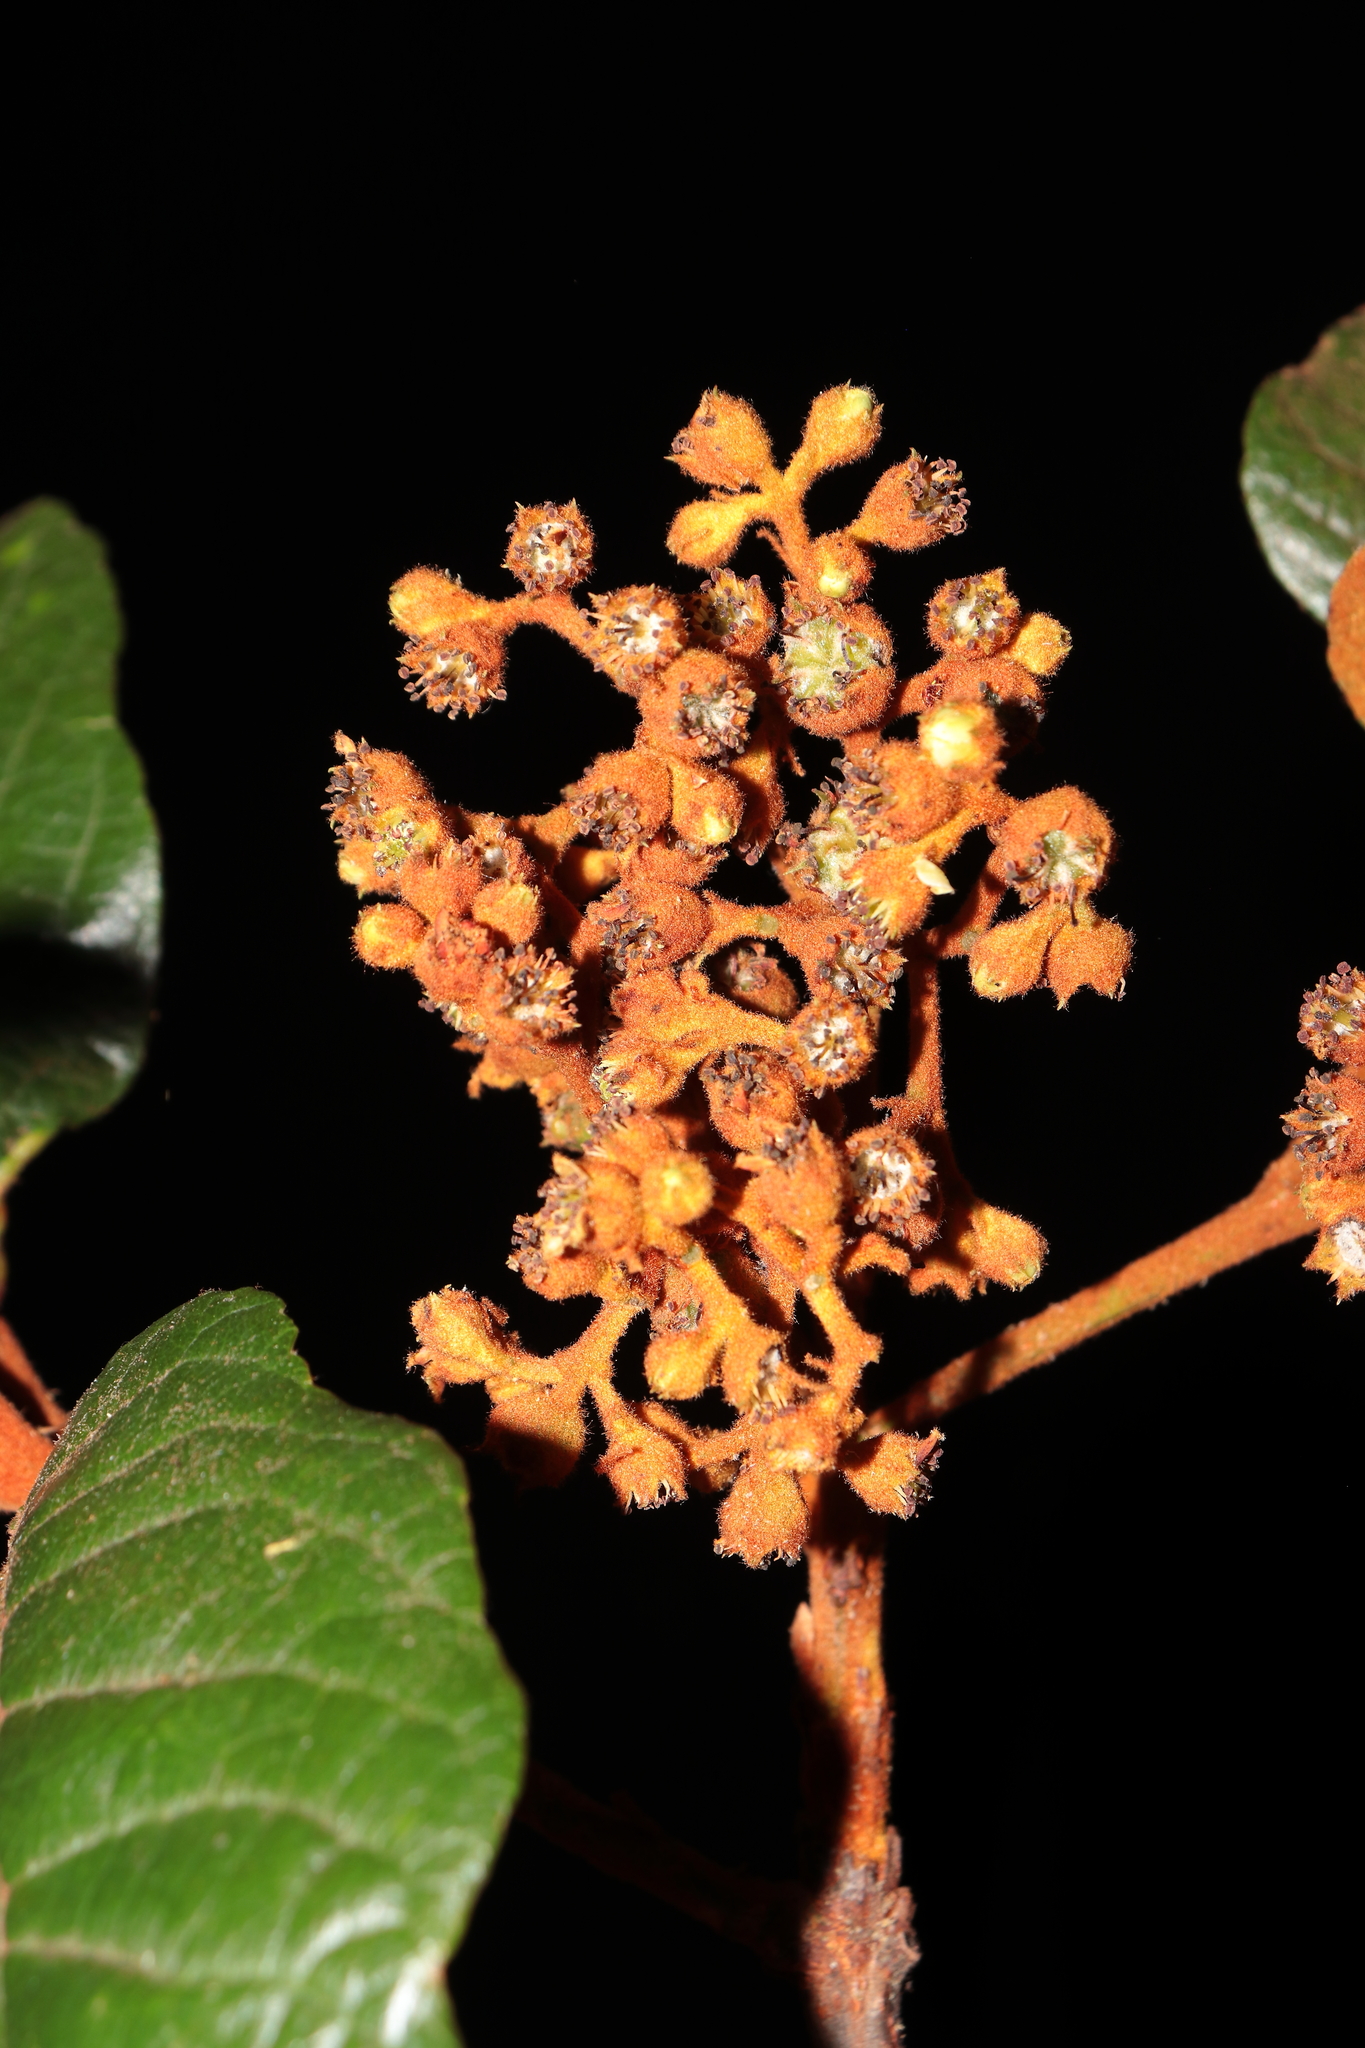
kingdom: Plantae
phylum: Tracheophyta
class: Magnoliopsida
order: Rosales
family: Rosaceae
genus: Hesperomeles
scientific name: Hesperomeles ferruginea
